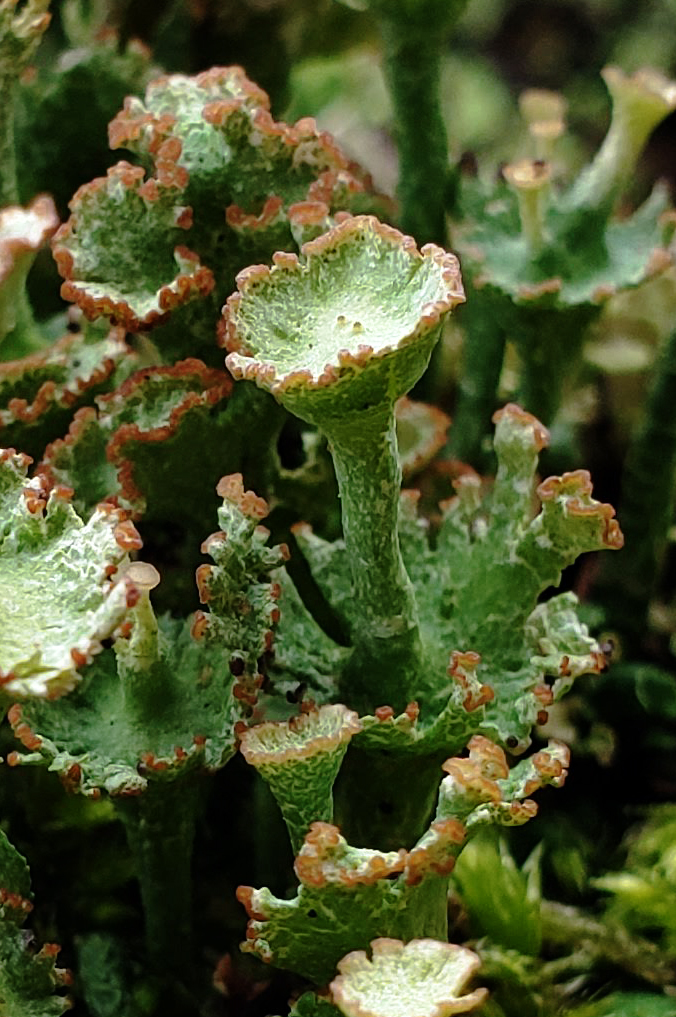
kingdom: Fungi
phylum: Ascomycota
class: Lecanoromycetes
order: Lecanorales
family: Cladoniaceae
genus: Cladonia
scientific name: Cladonia cervicornis
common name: Browned pixie-cup lichen
